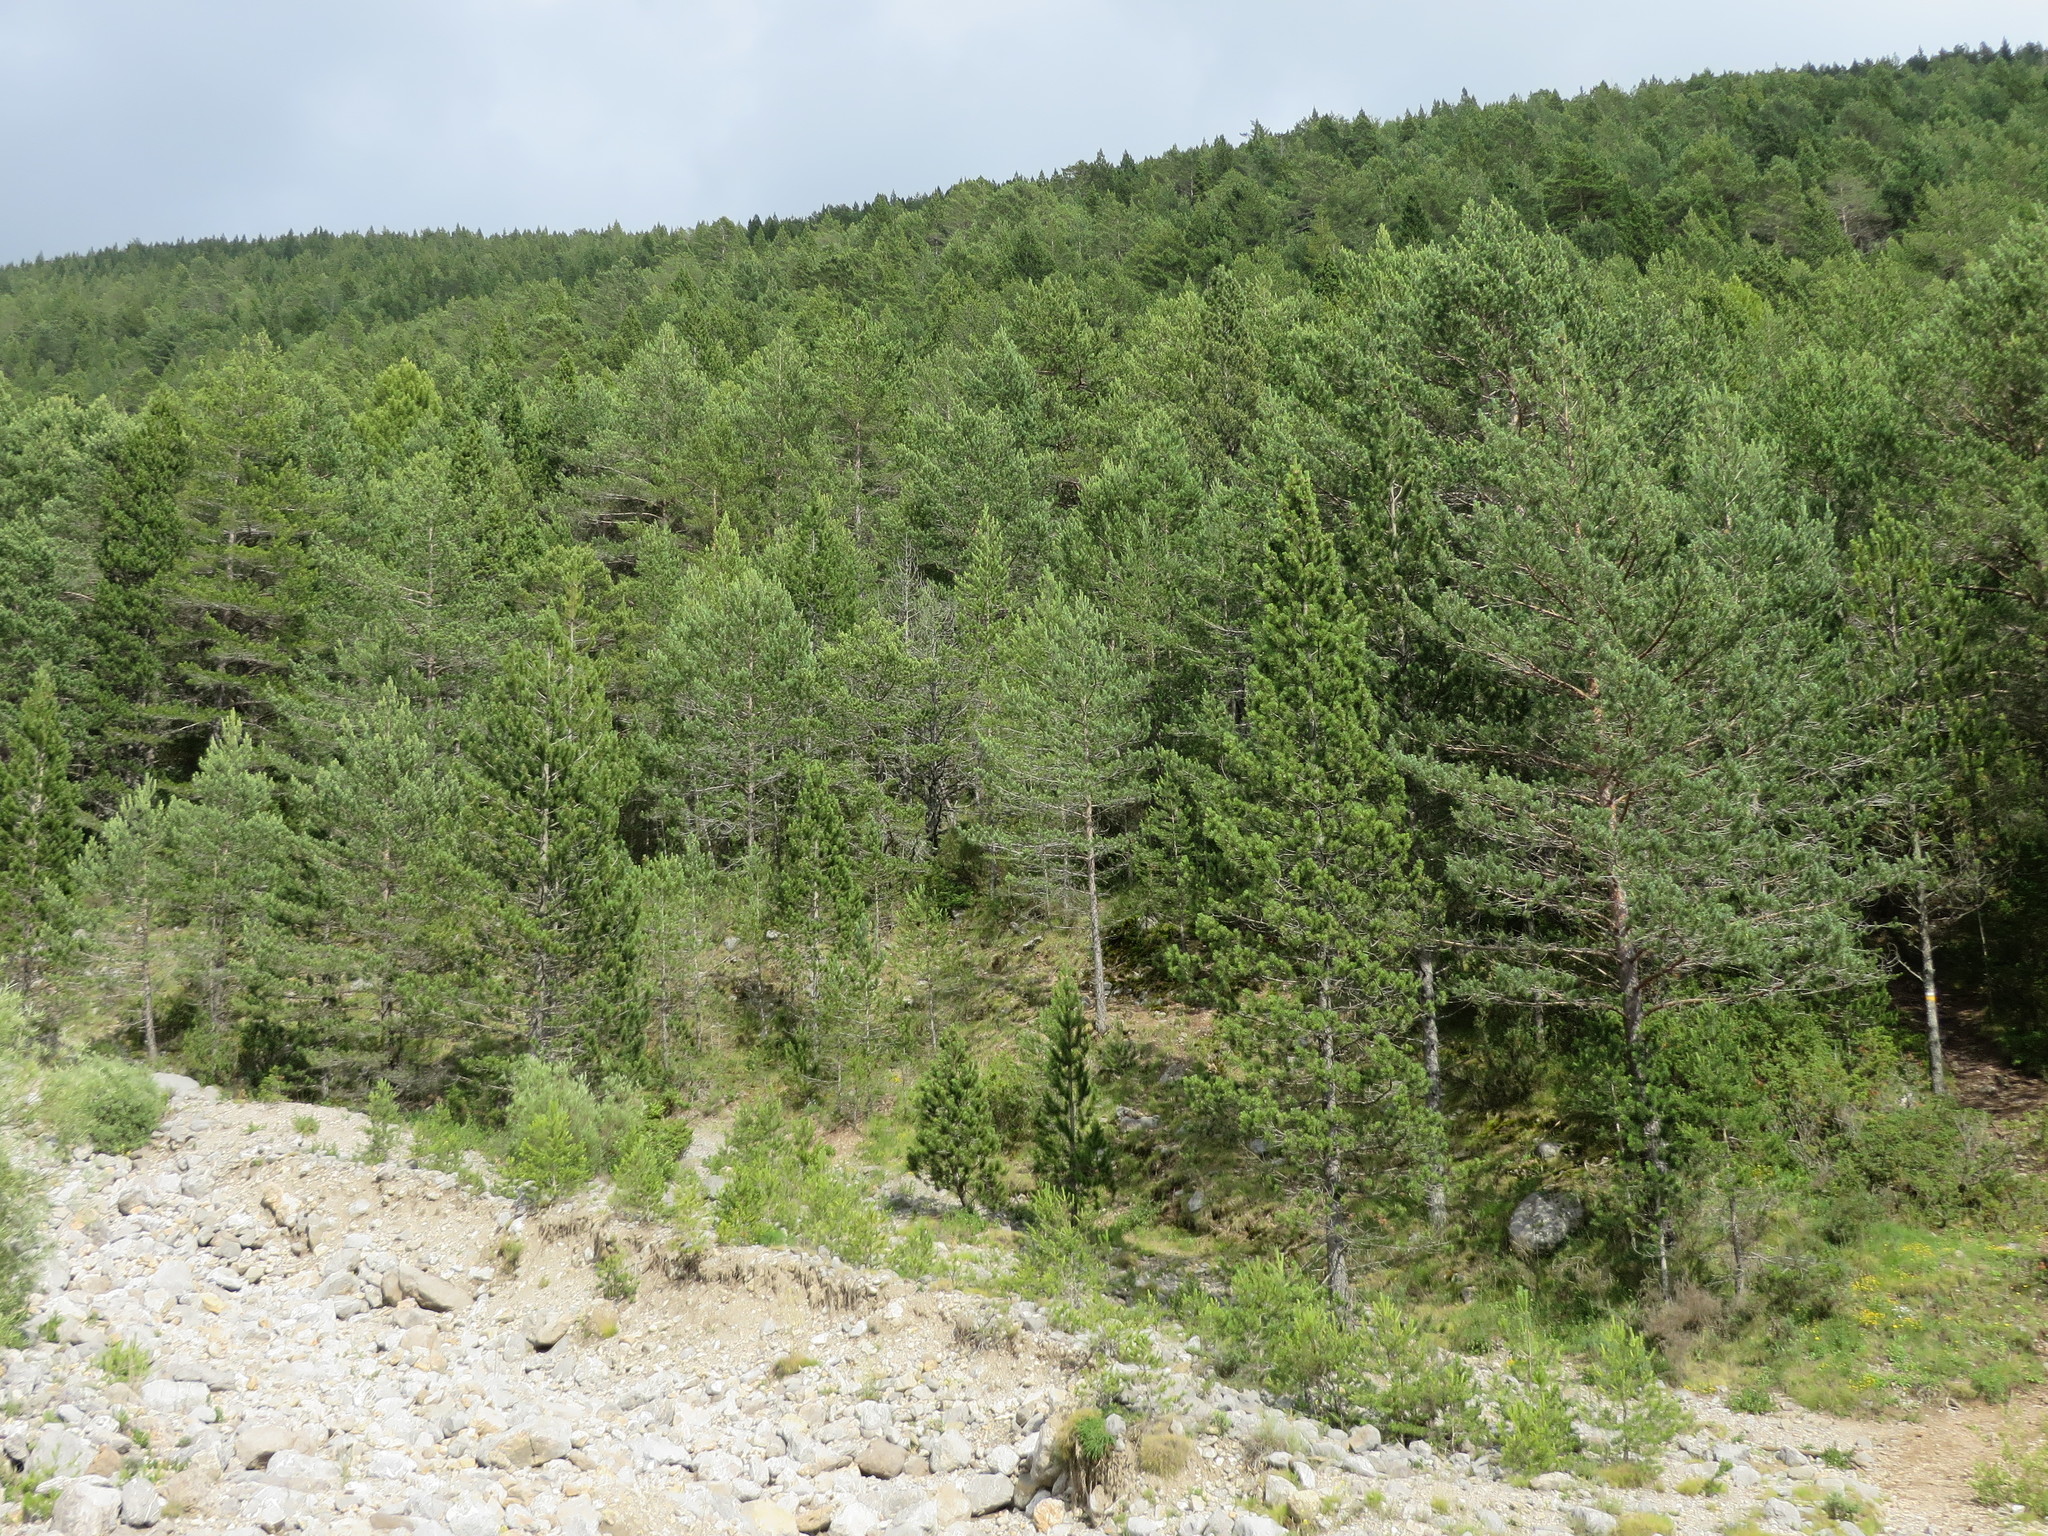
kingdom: Plantae
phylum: Tracheophyta
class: Pinopsida
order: Pinales
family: Pinaceae
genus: Pinus
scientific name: Pinus sylvestris
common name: Scots pine
